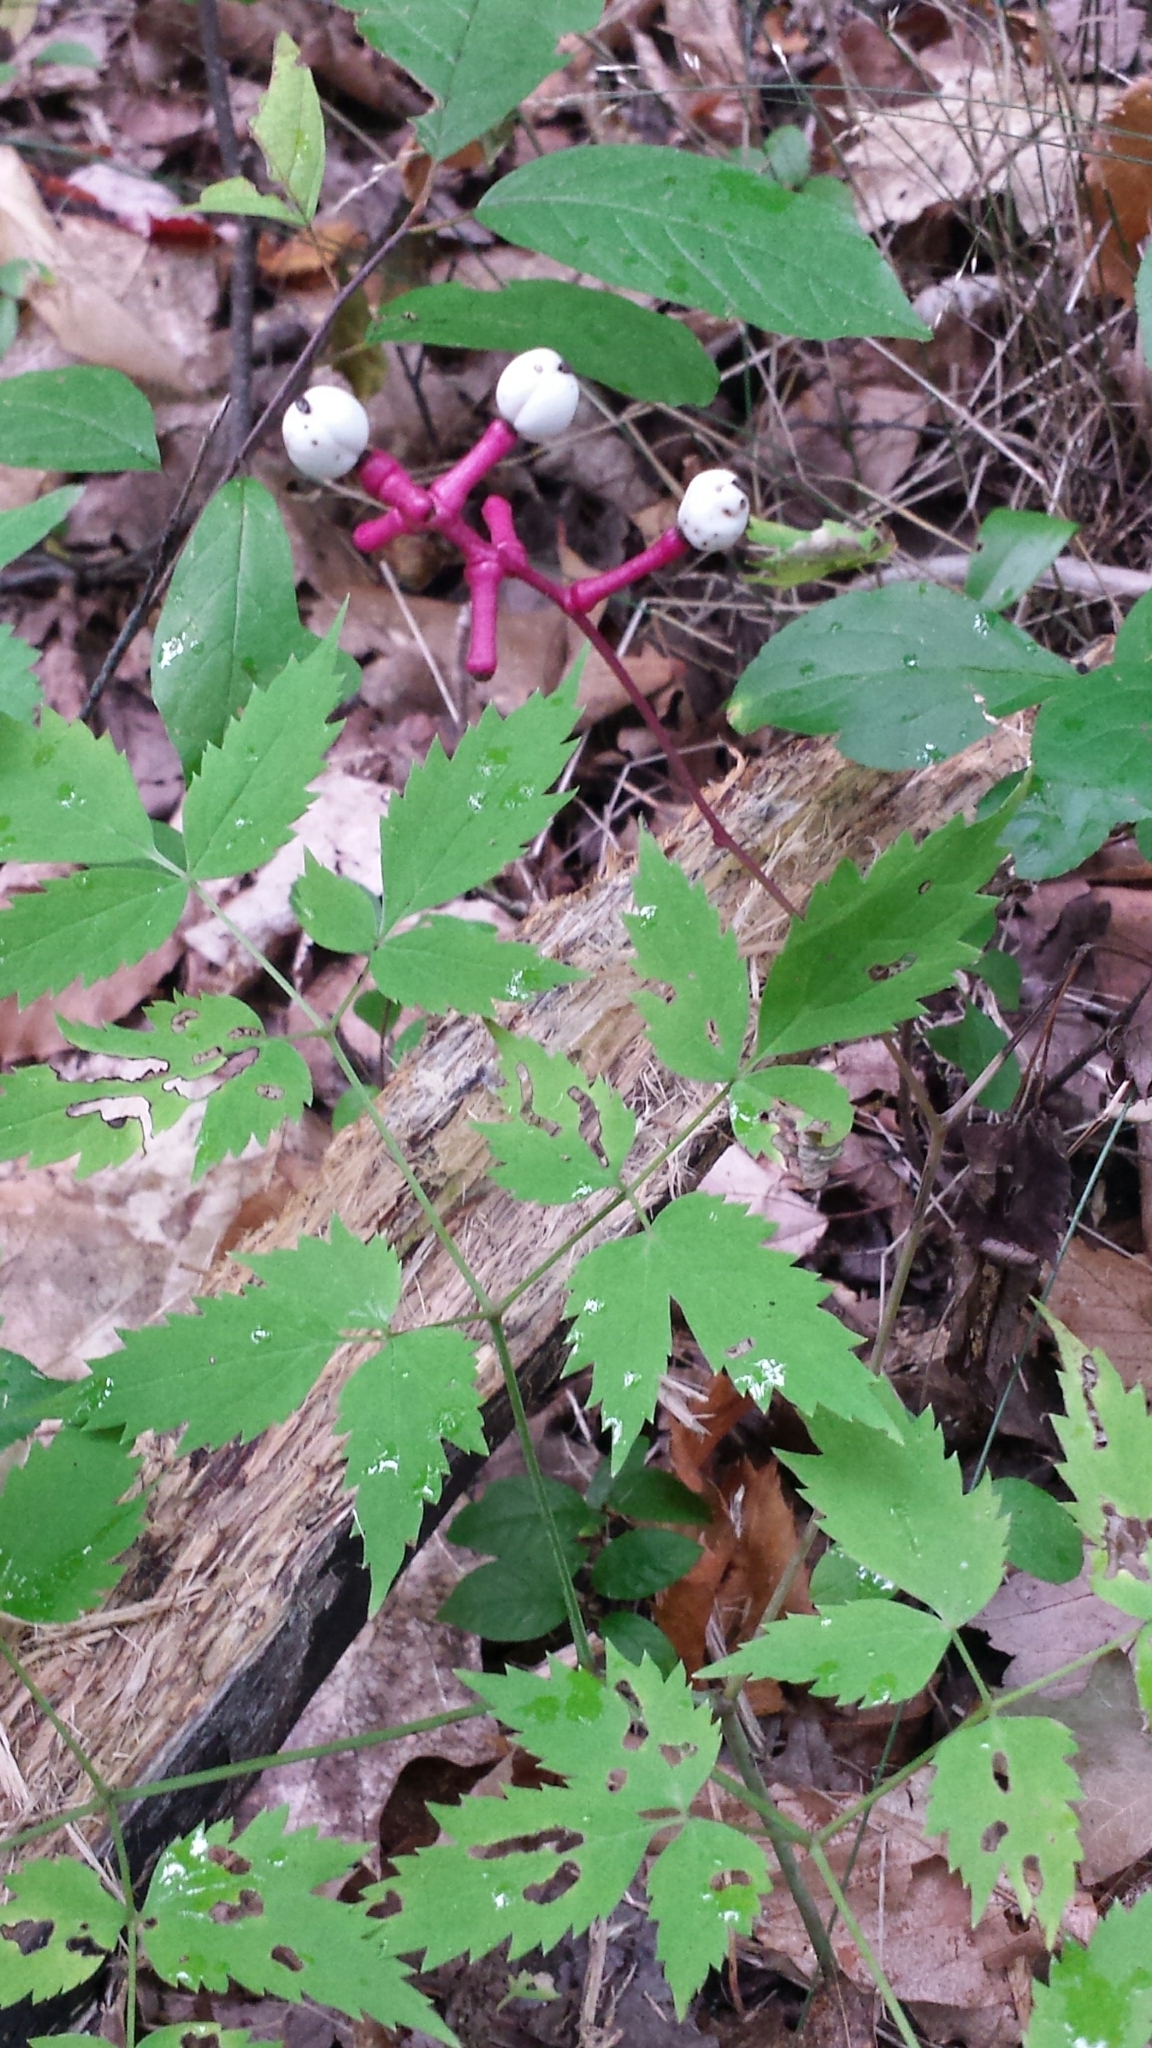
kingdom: Plantae
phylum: Tracheophyta
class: Magnoliopsida
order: Ranunculales
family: Ranunculaceae
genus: Actaea
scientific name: Actaea pachypoda
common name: Doll's-eyes
